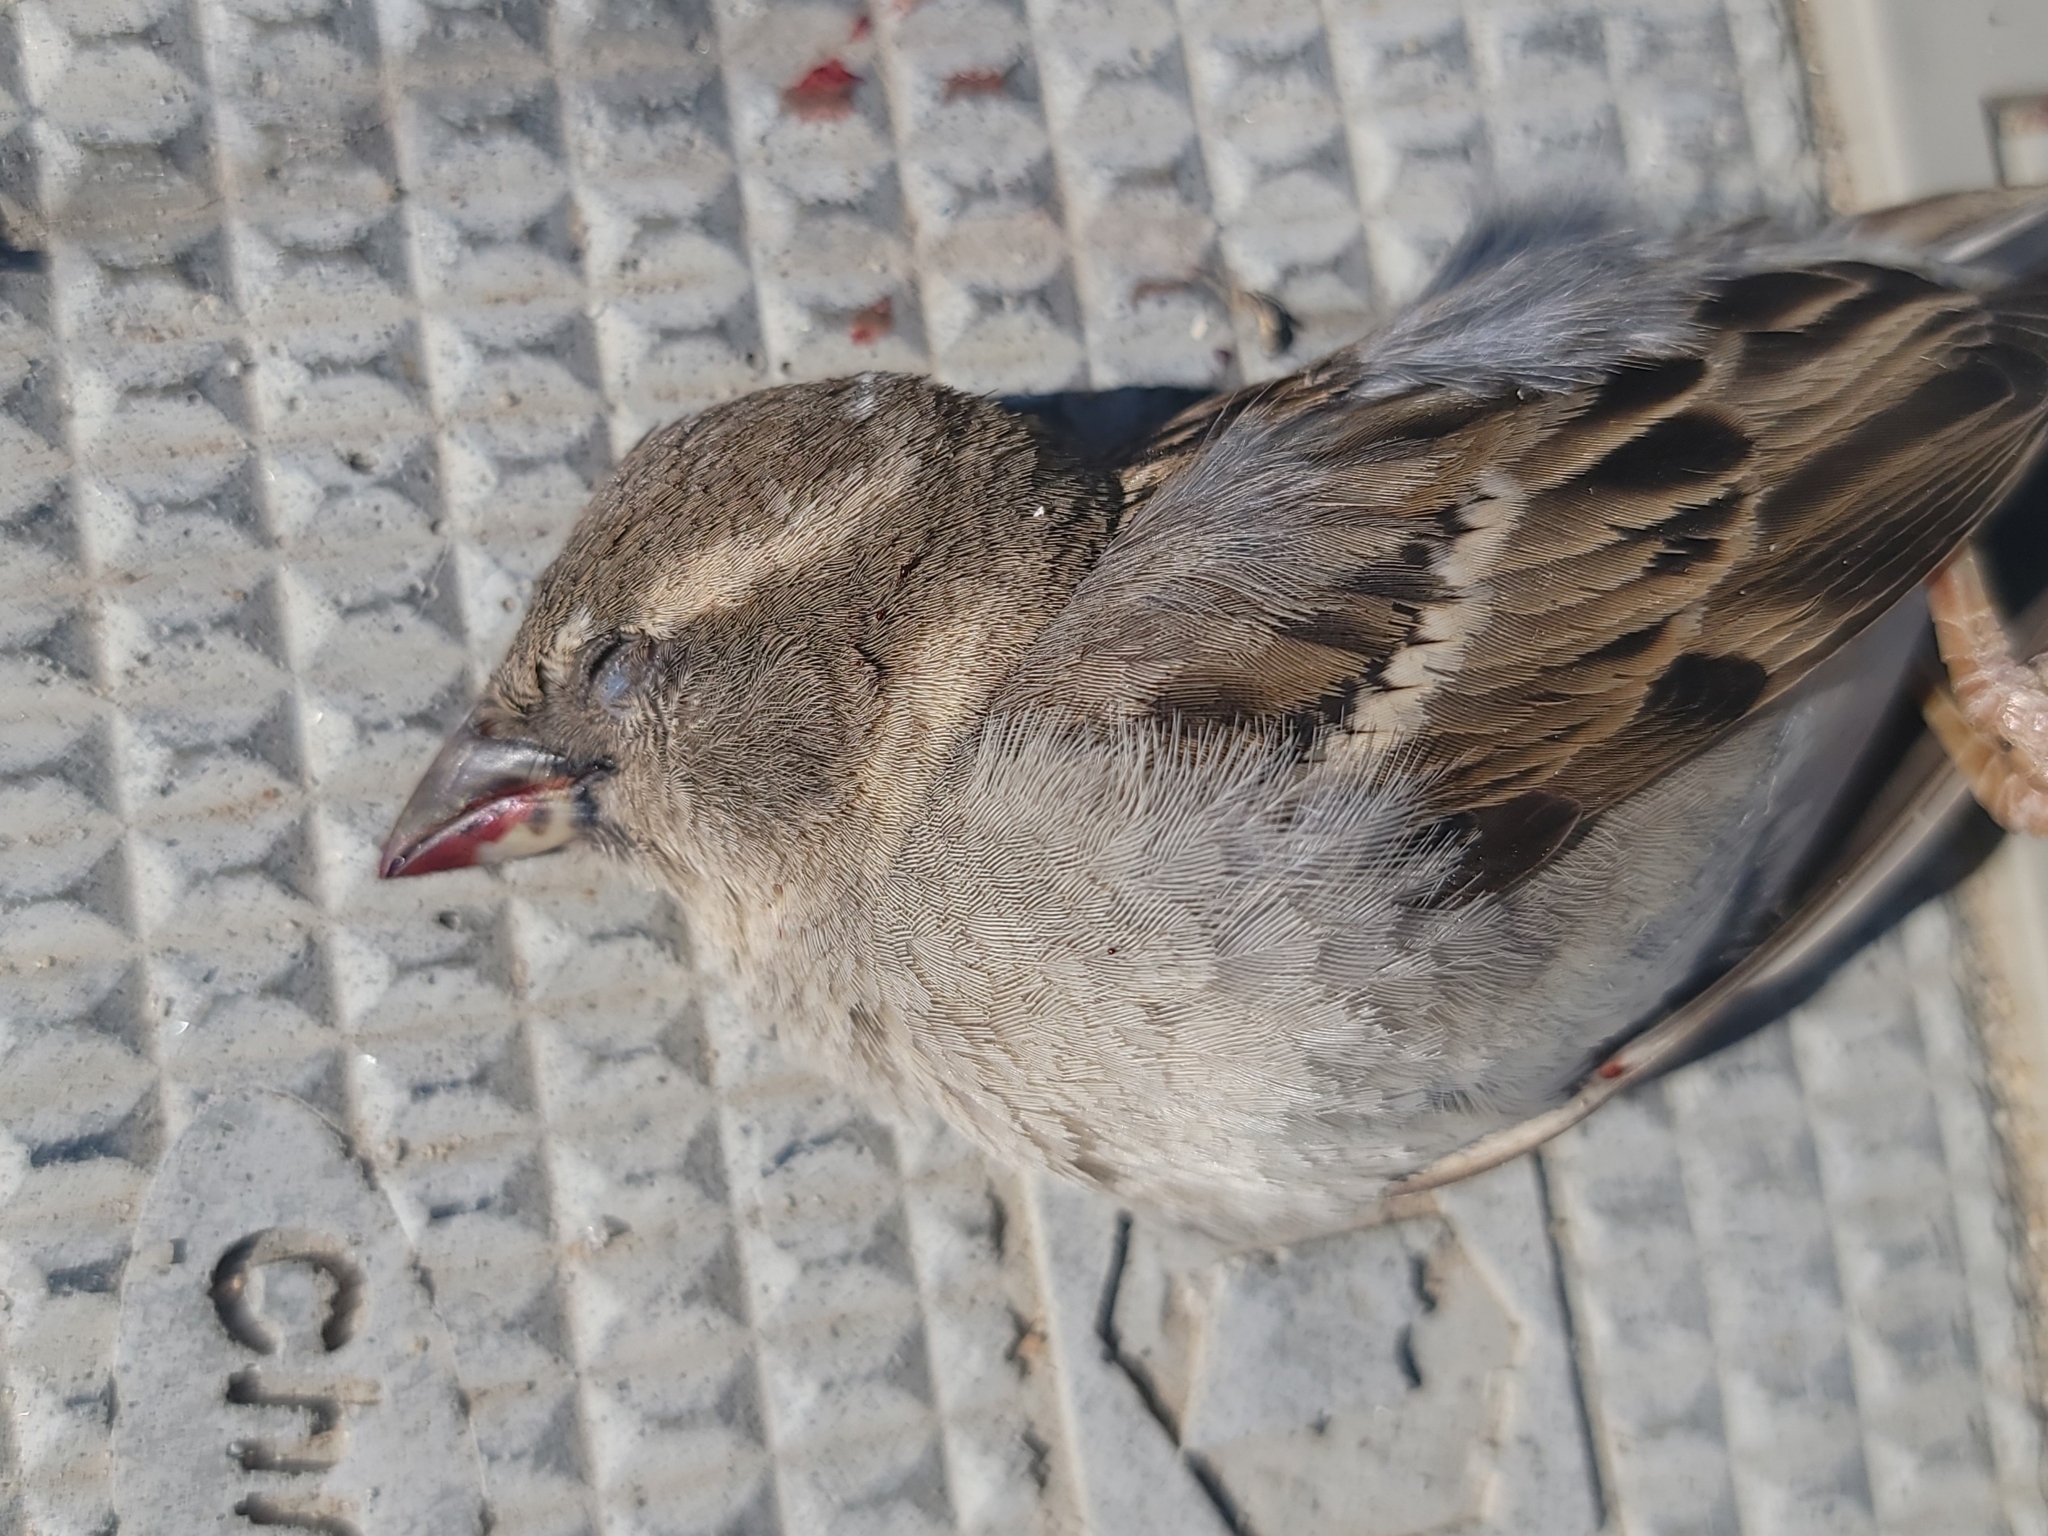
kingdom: Animalia
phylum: Chordata
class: Aves
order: Passeriformes
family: Passeridae
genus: Passer
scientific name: Passer domesticus
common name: House sparrow
